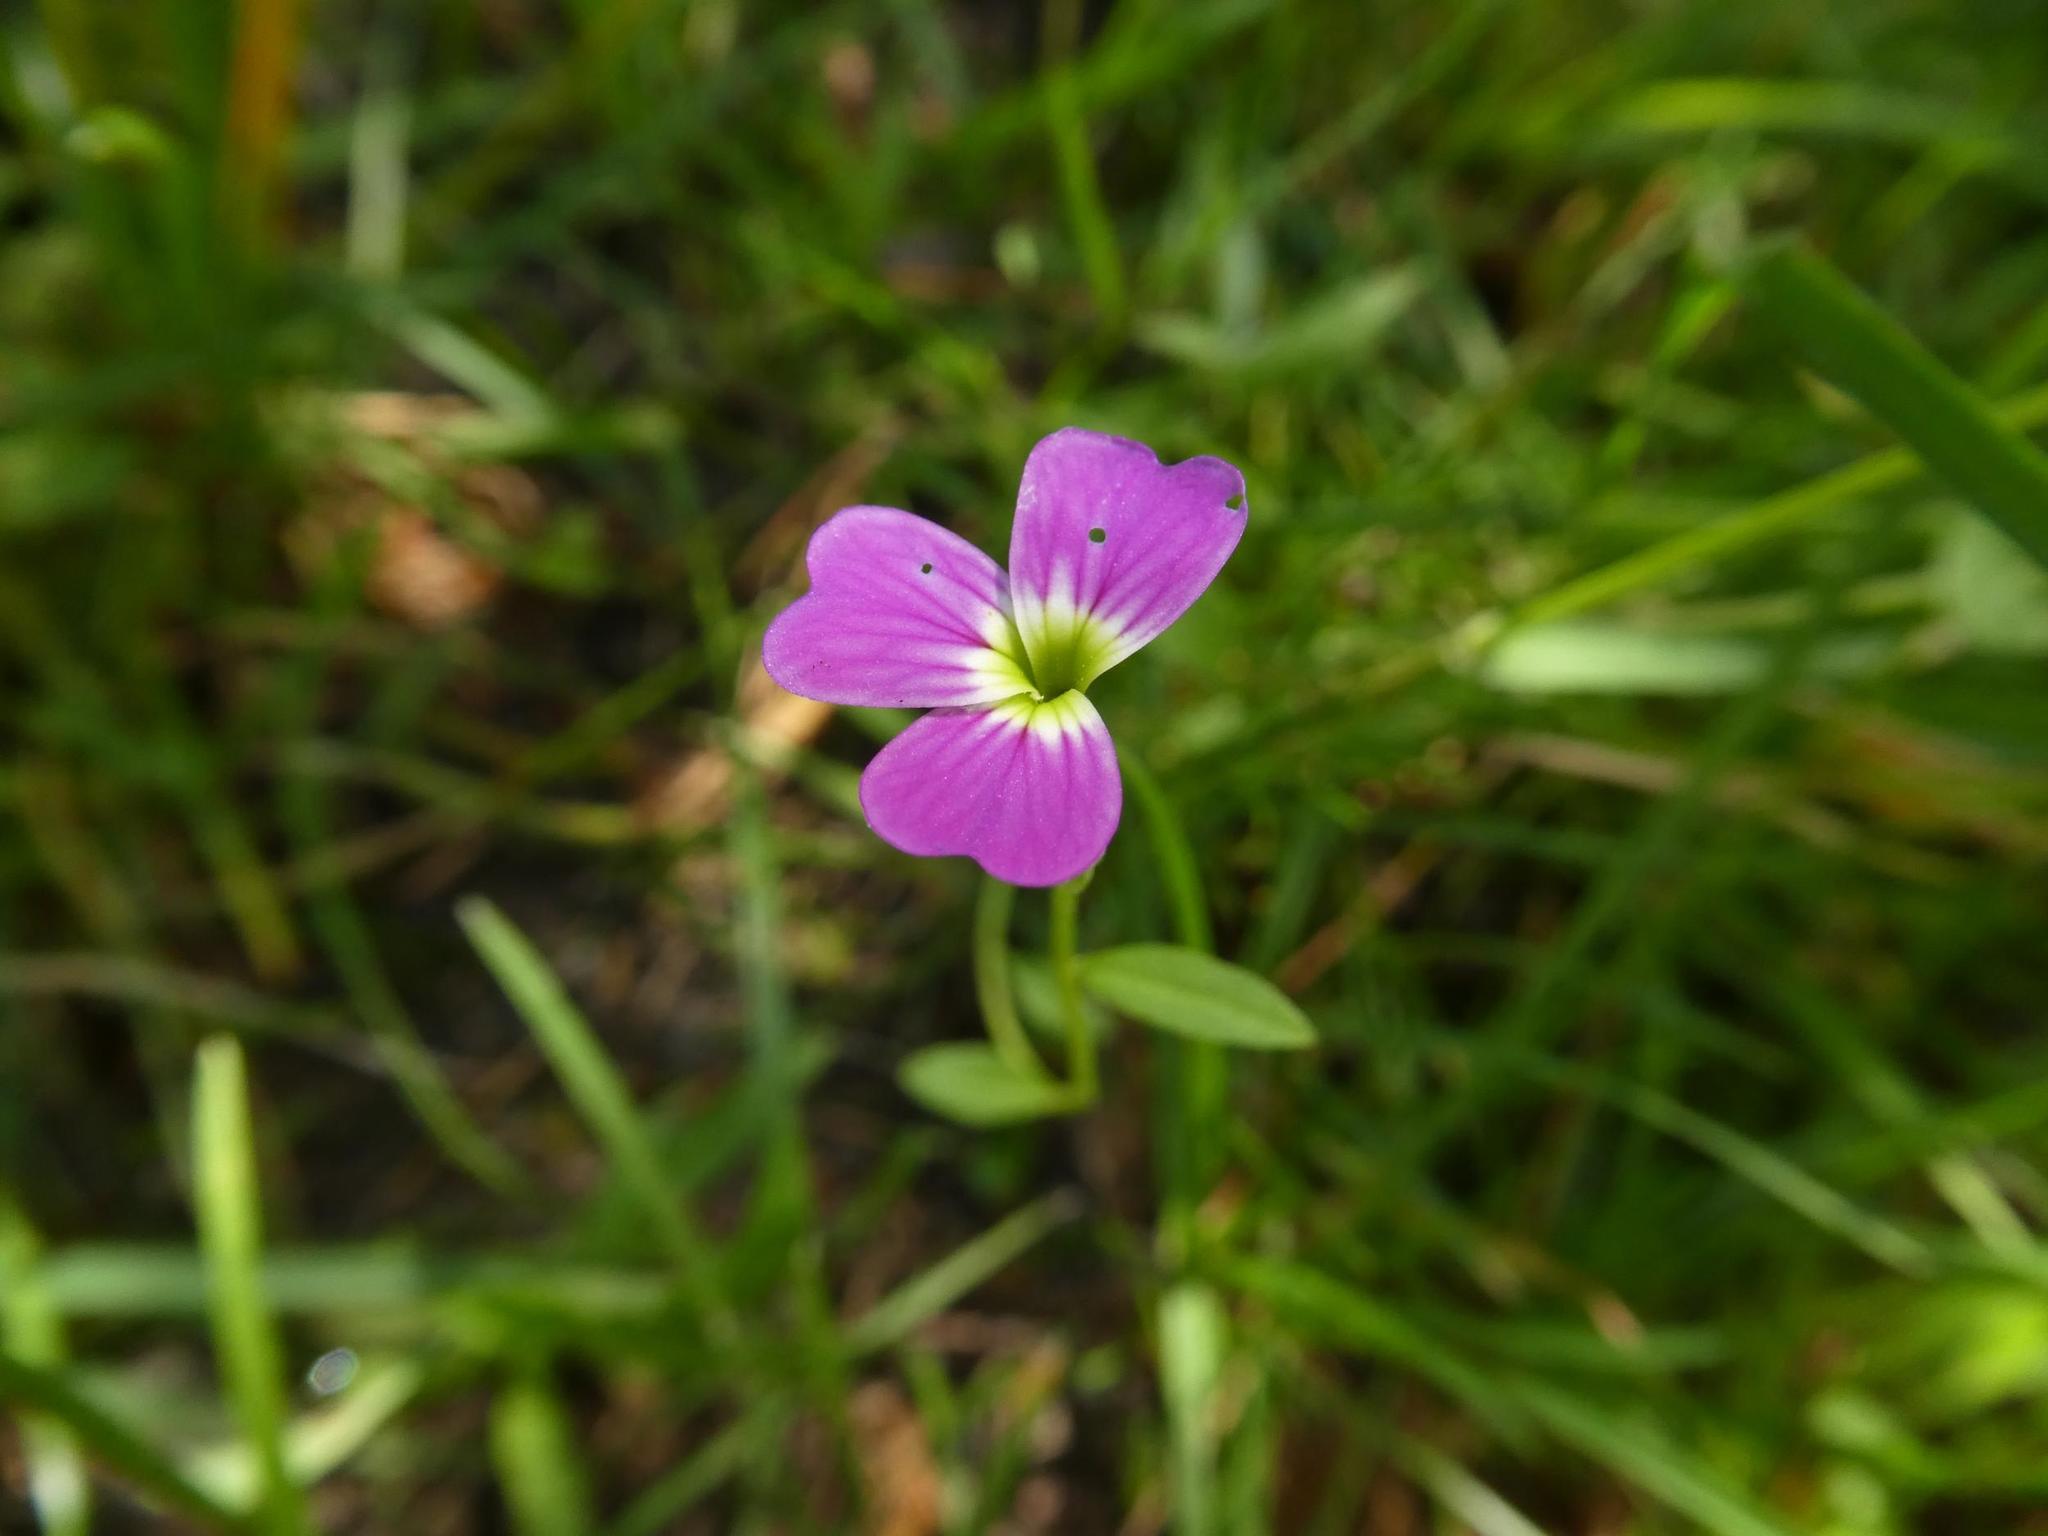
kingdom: Plantae
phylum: Tracheophyta
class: Magnoliopsida
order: Brassicales
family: Brassicaceae
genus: Malcolmia
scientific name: Malcolmia maritima
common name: Virginia stock
